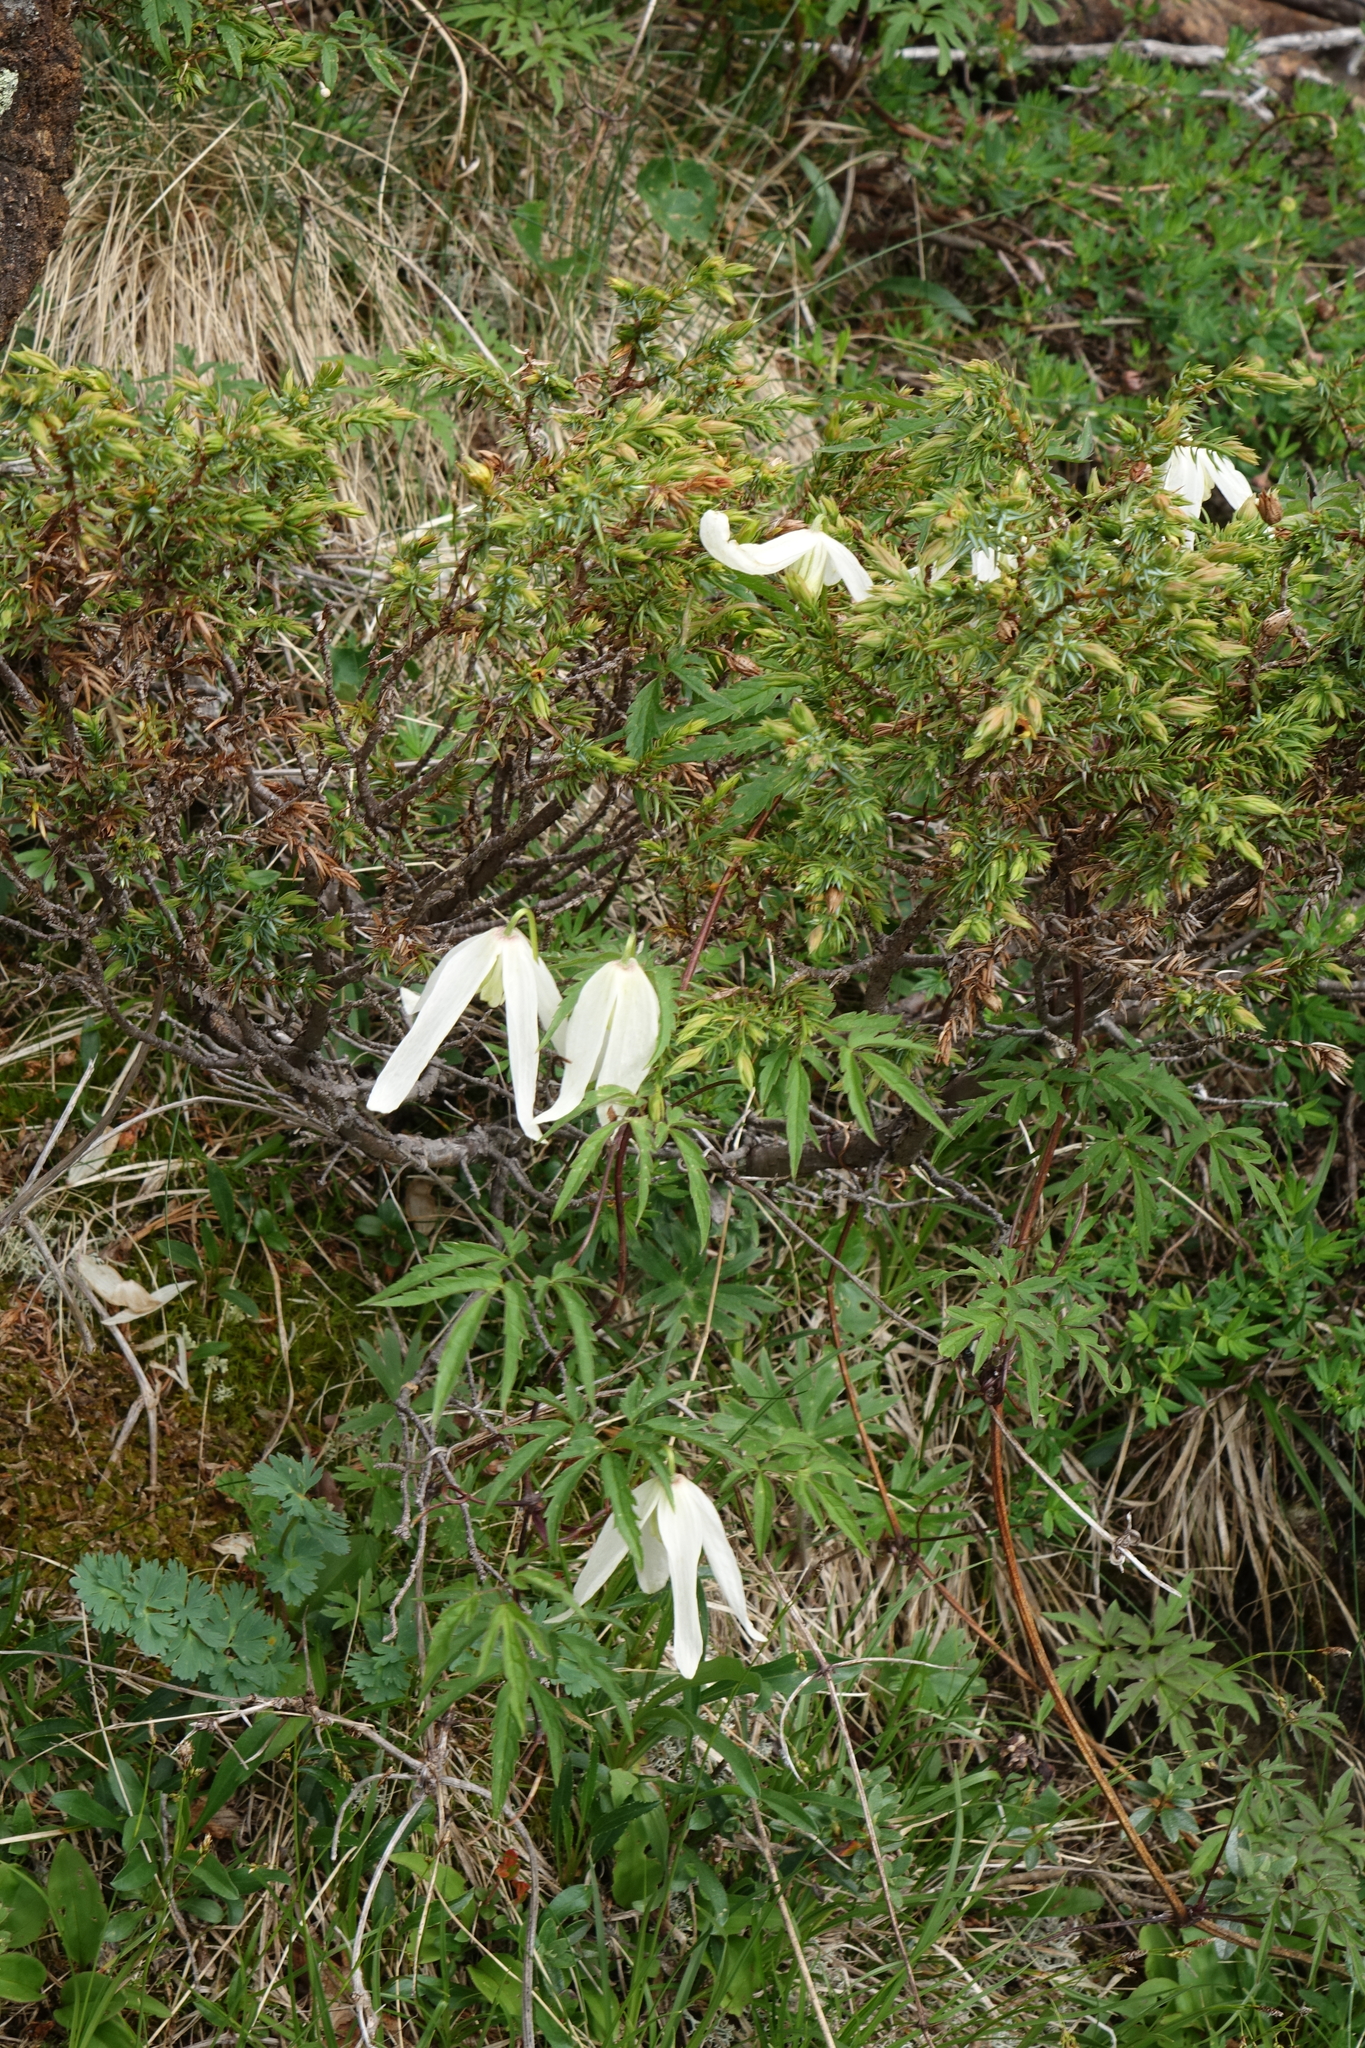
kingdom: Plantae
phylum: Tracheophyta
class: Magnoliopsida
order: Ranunculales
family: Ranunculaceae
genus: Clematis
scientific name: Clematis sibirica
